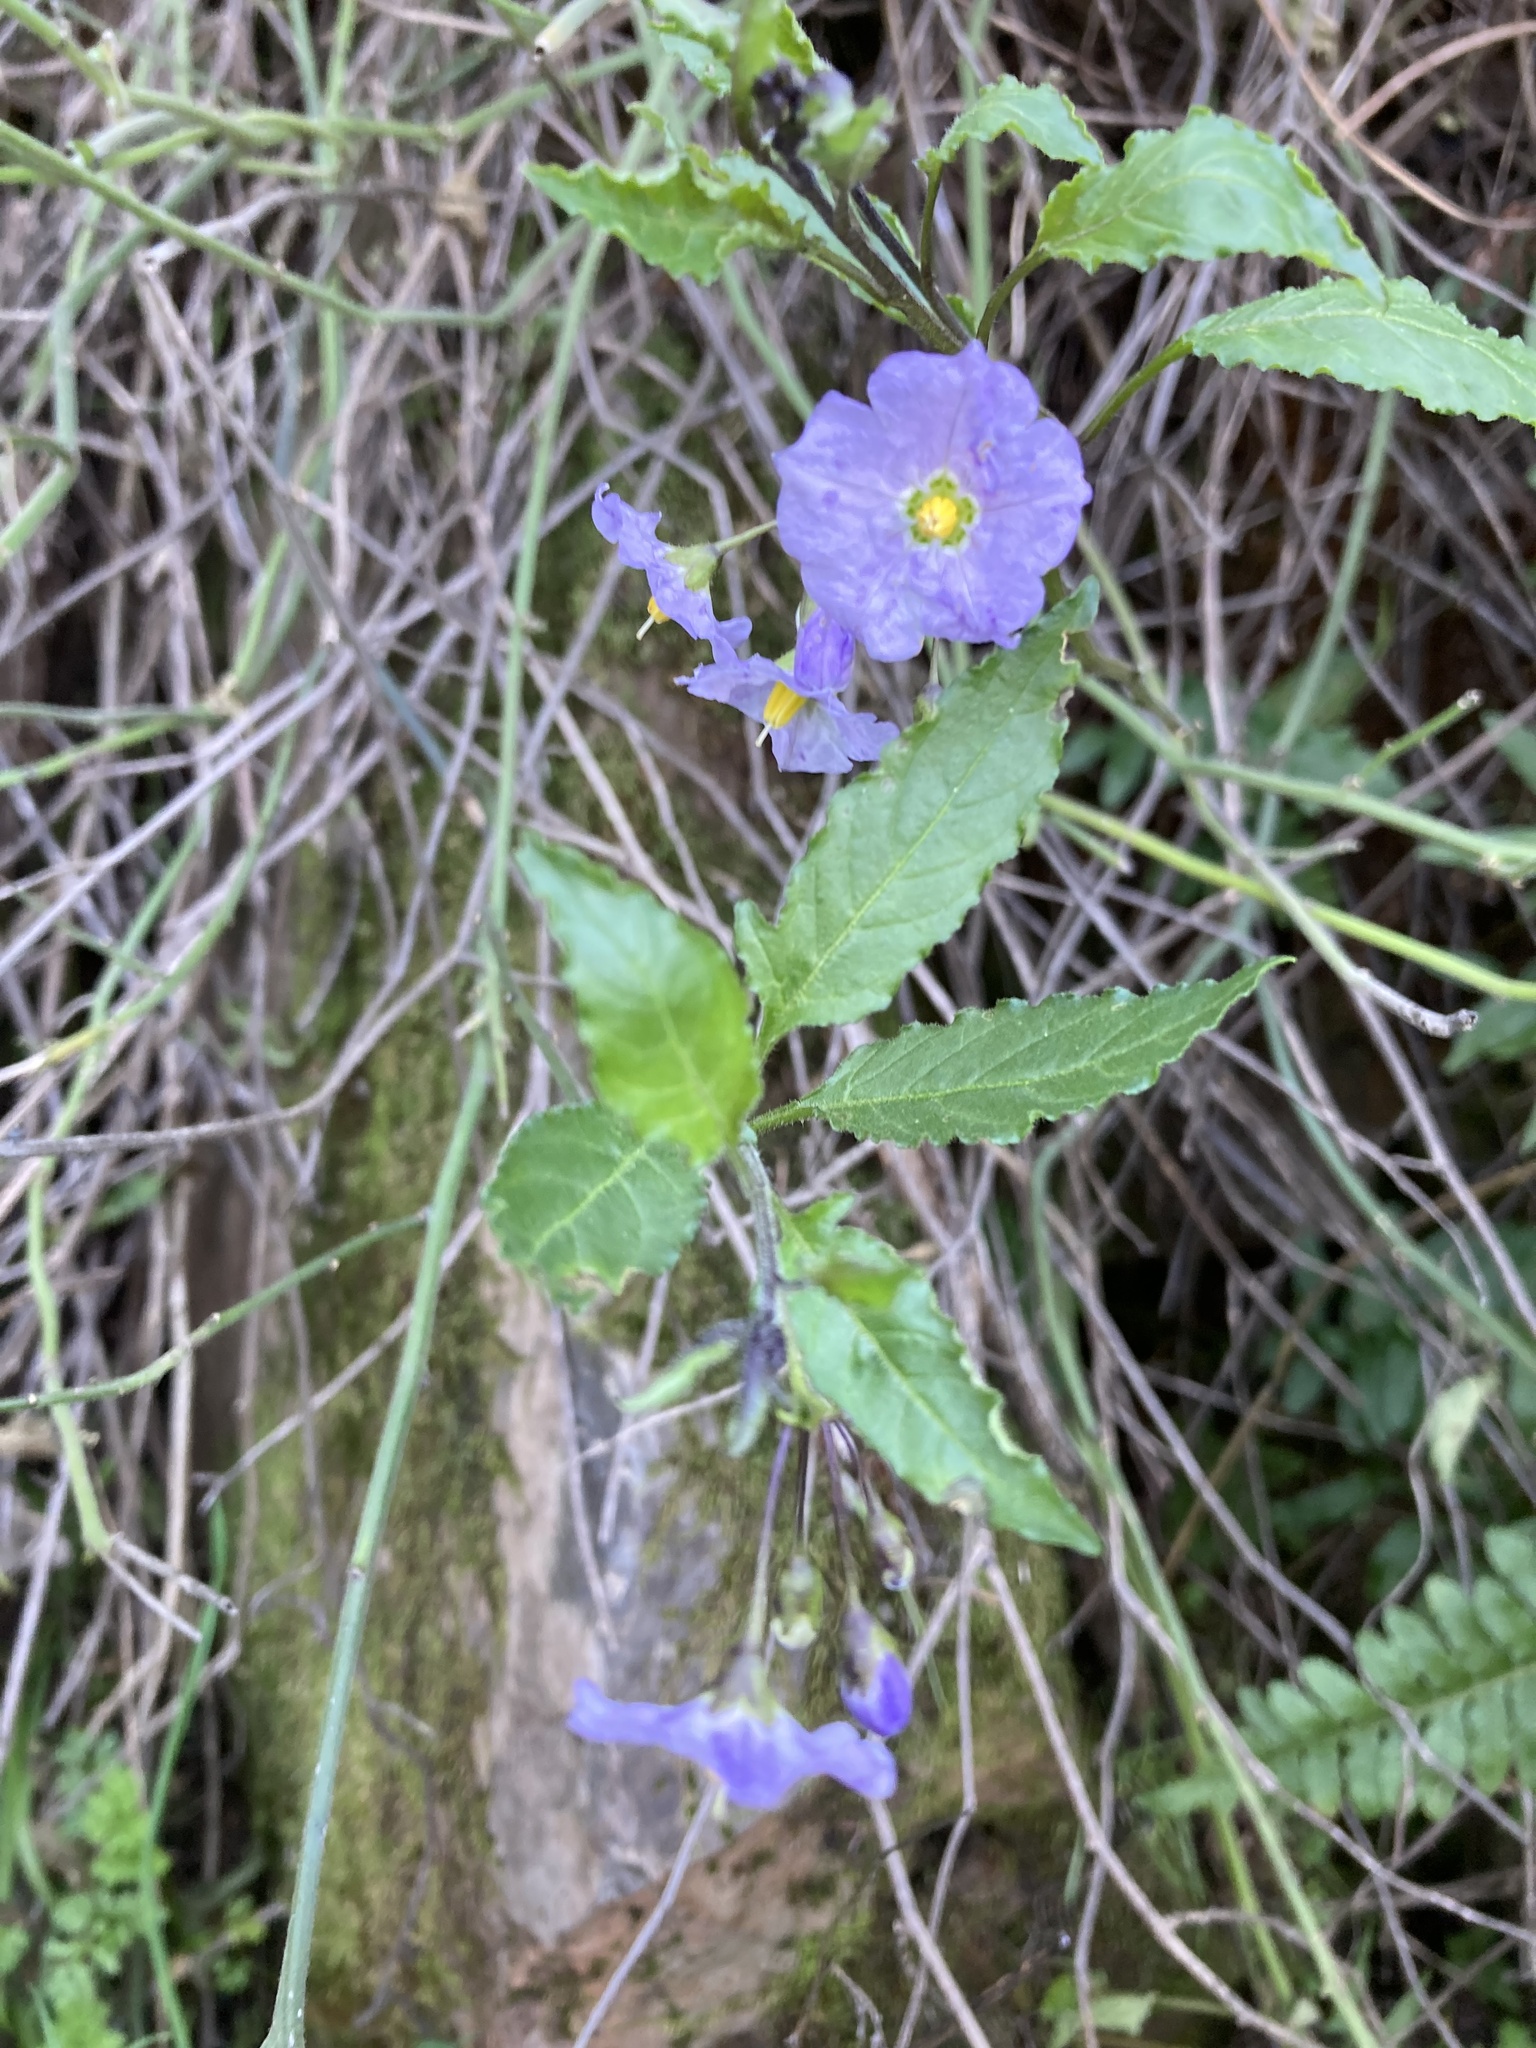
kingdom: Plantae
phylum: Tracheophyta
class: Magnoliopsida
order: Solanales
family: Solanaceae
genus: Solanum
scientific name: Solanum umbelliferum
